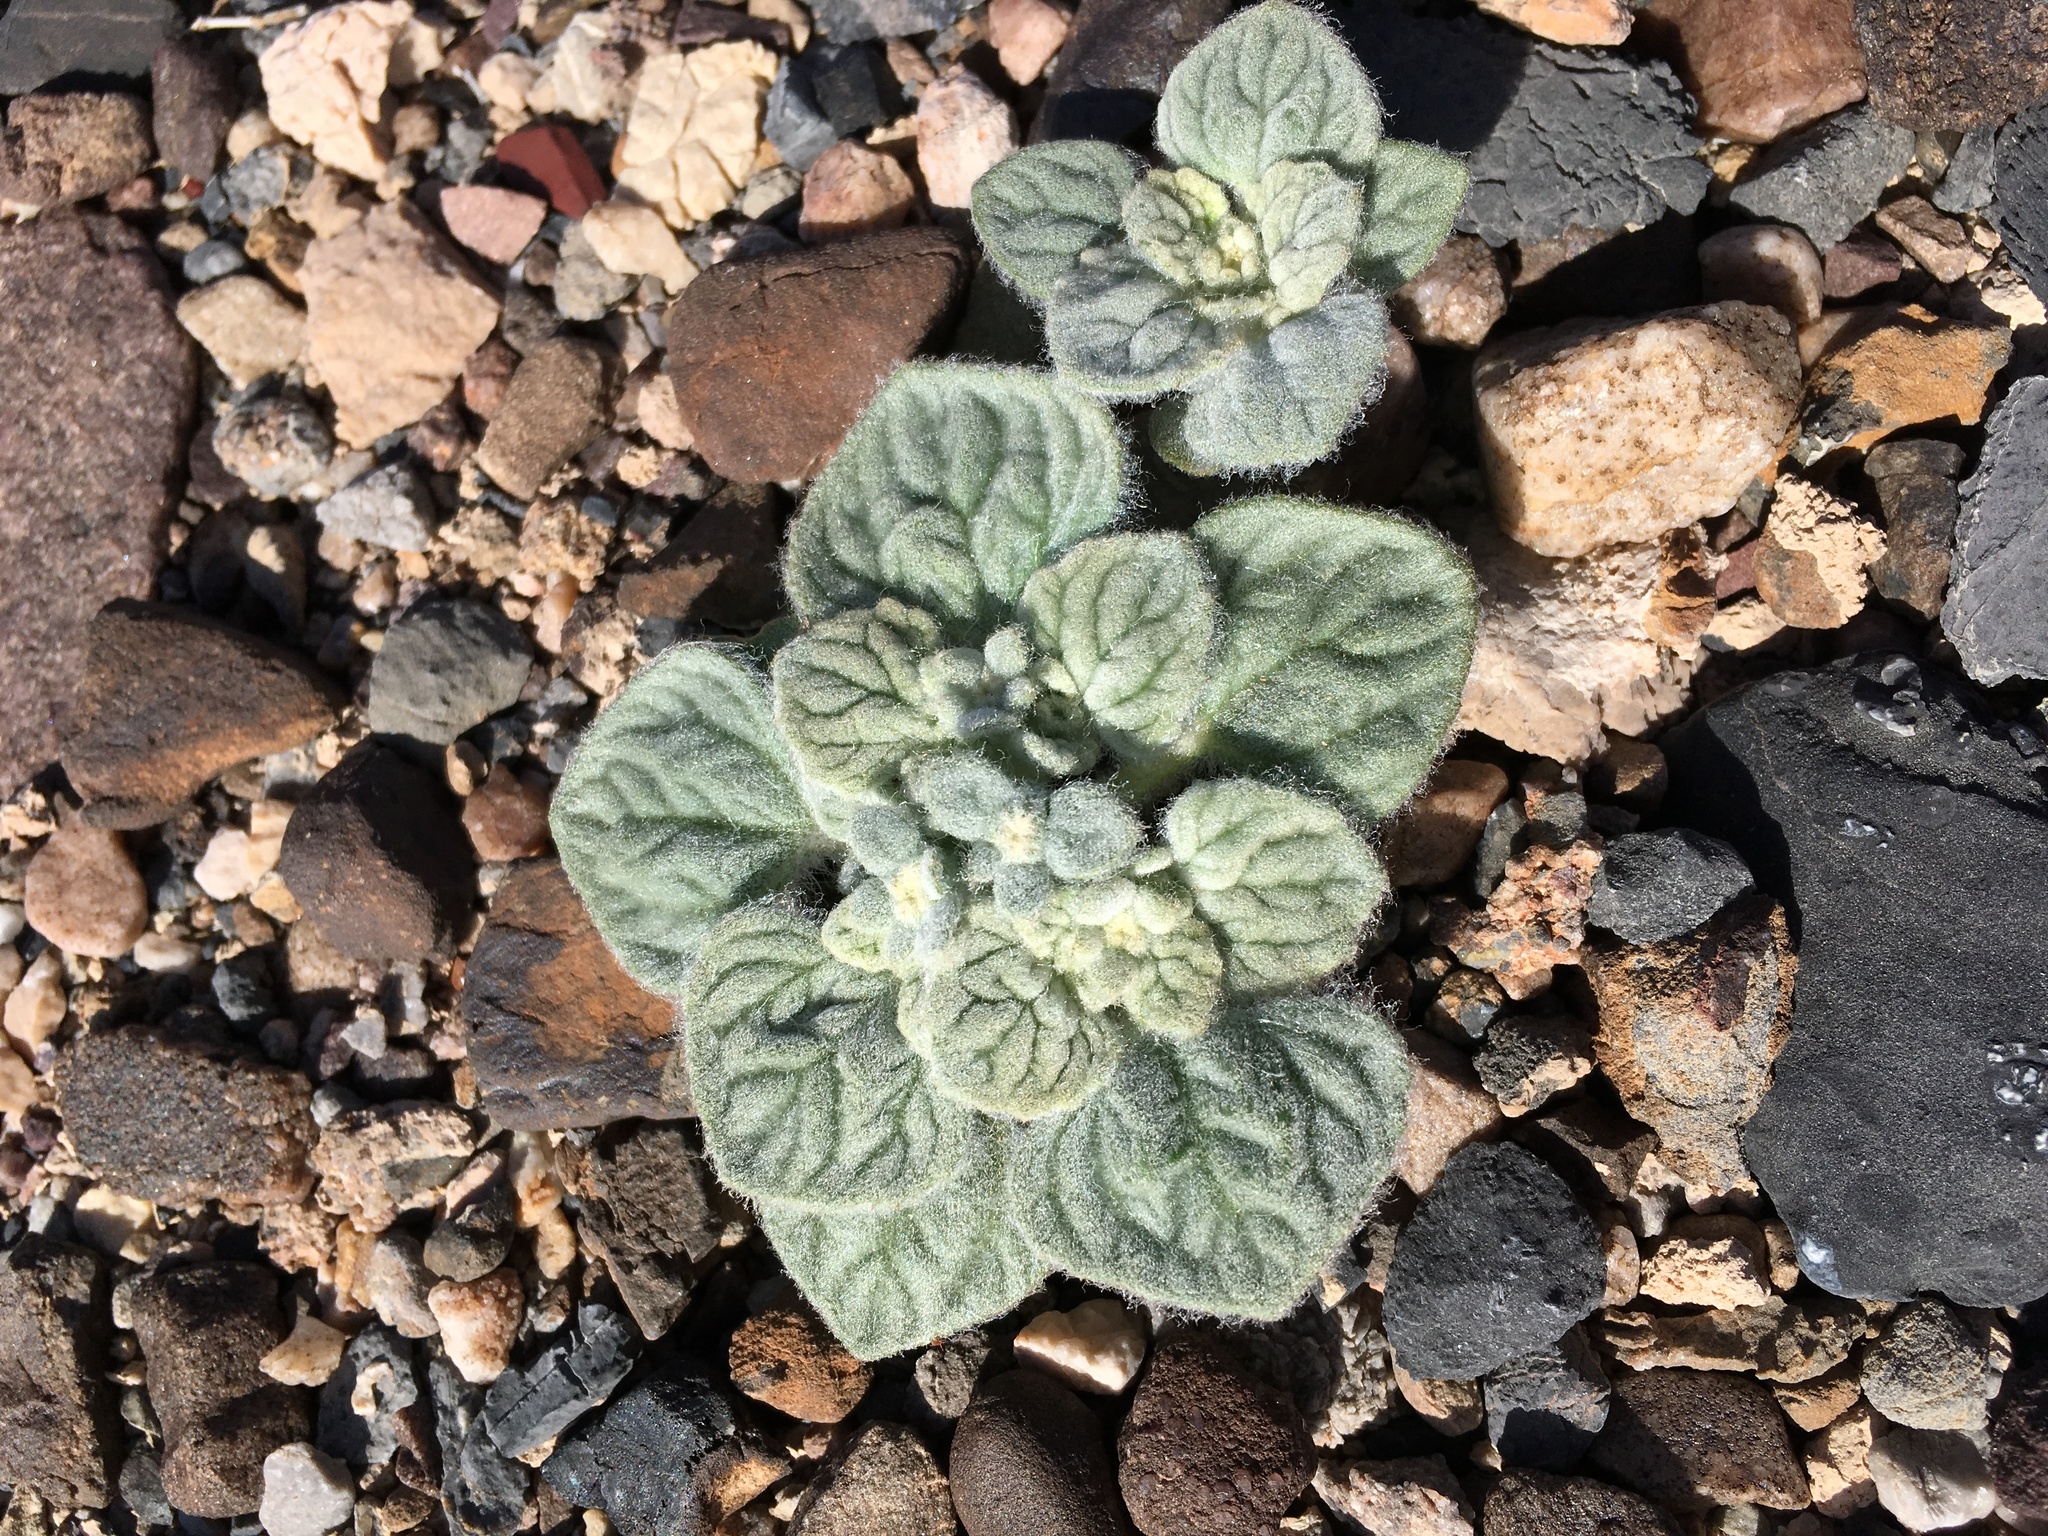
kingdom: Plantae
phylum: Tracheophyta
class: Magnoliopsida
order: Asterales
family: Asteraceae
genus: Psathyrotes
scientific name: Psathyrotes ramosissima
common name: Turtleback
